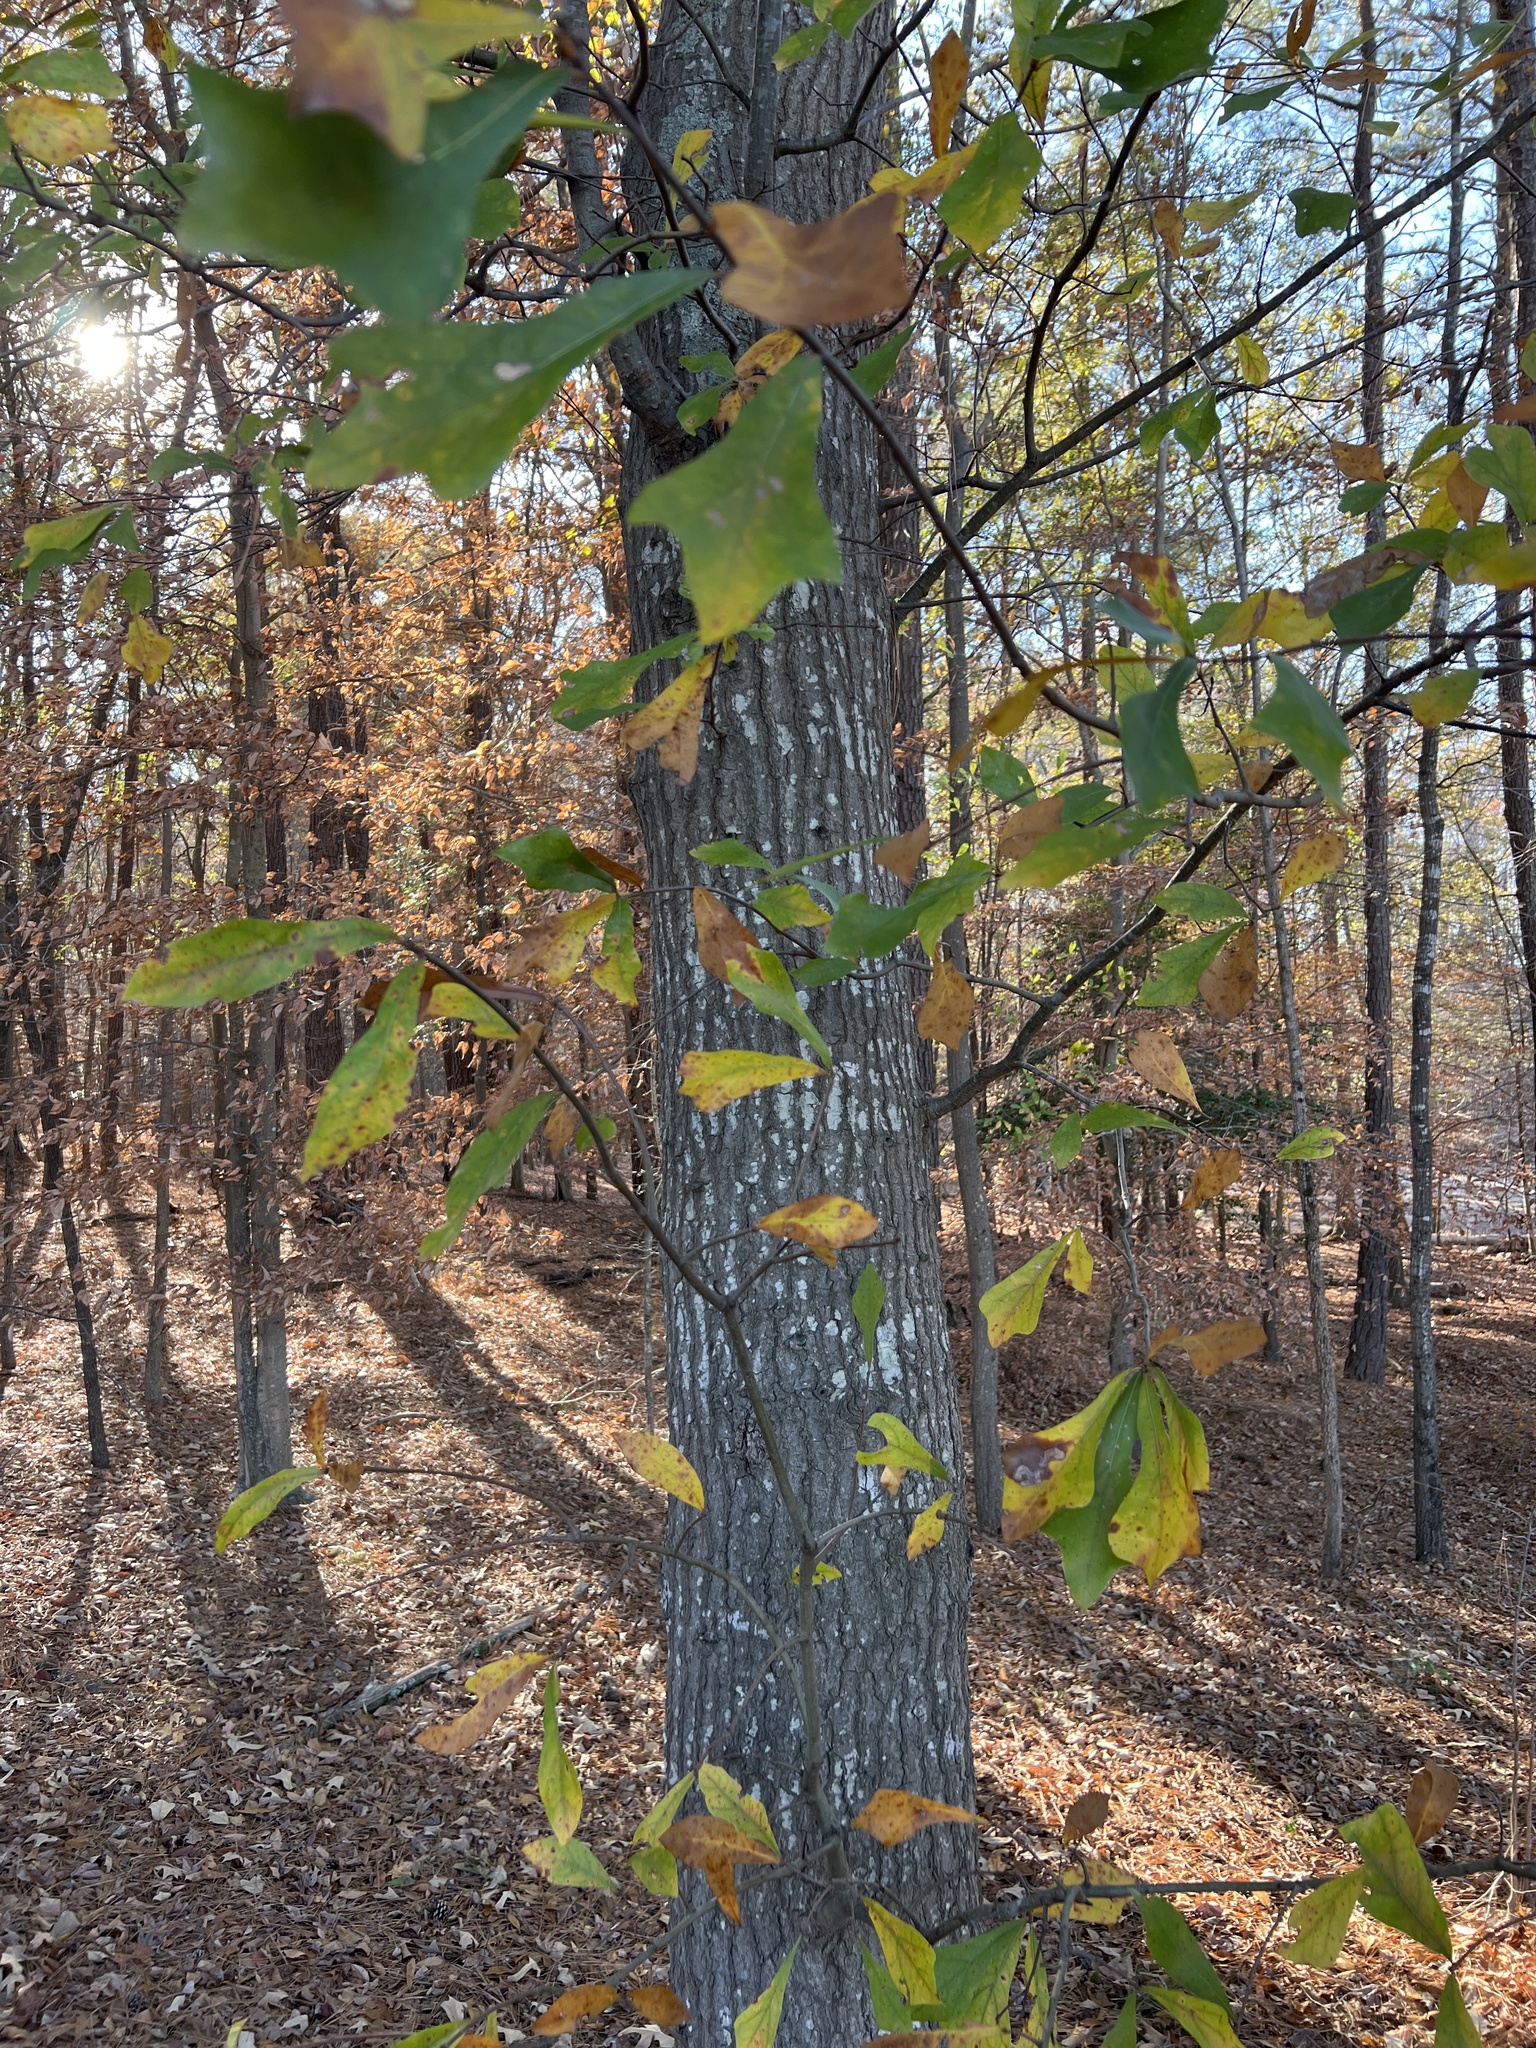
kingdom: Plantae
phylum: Tracheophyta
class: Magnoliopsida
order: Fagales
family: Fagaceae
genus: Quercus
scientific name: Quercus nigra
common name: Water oak
